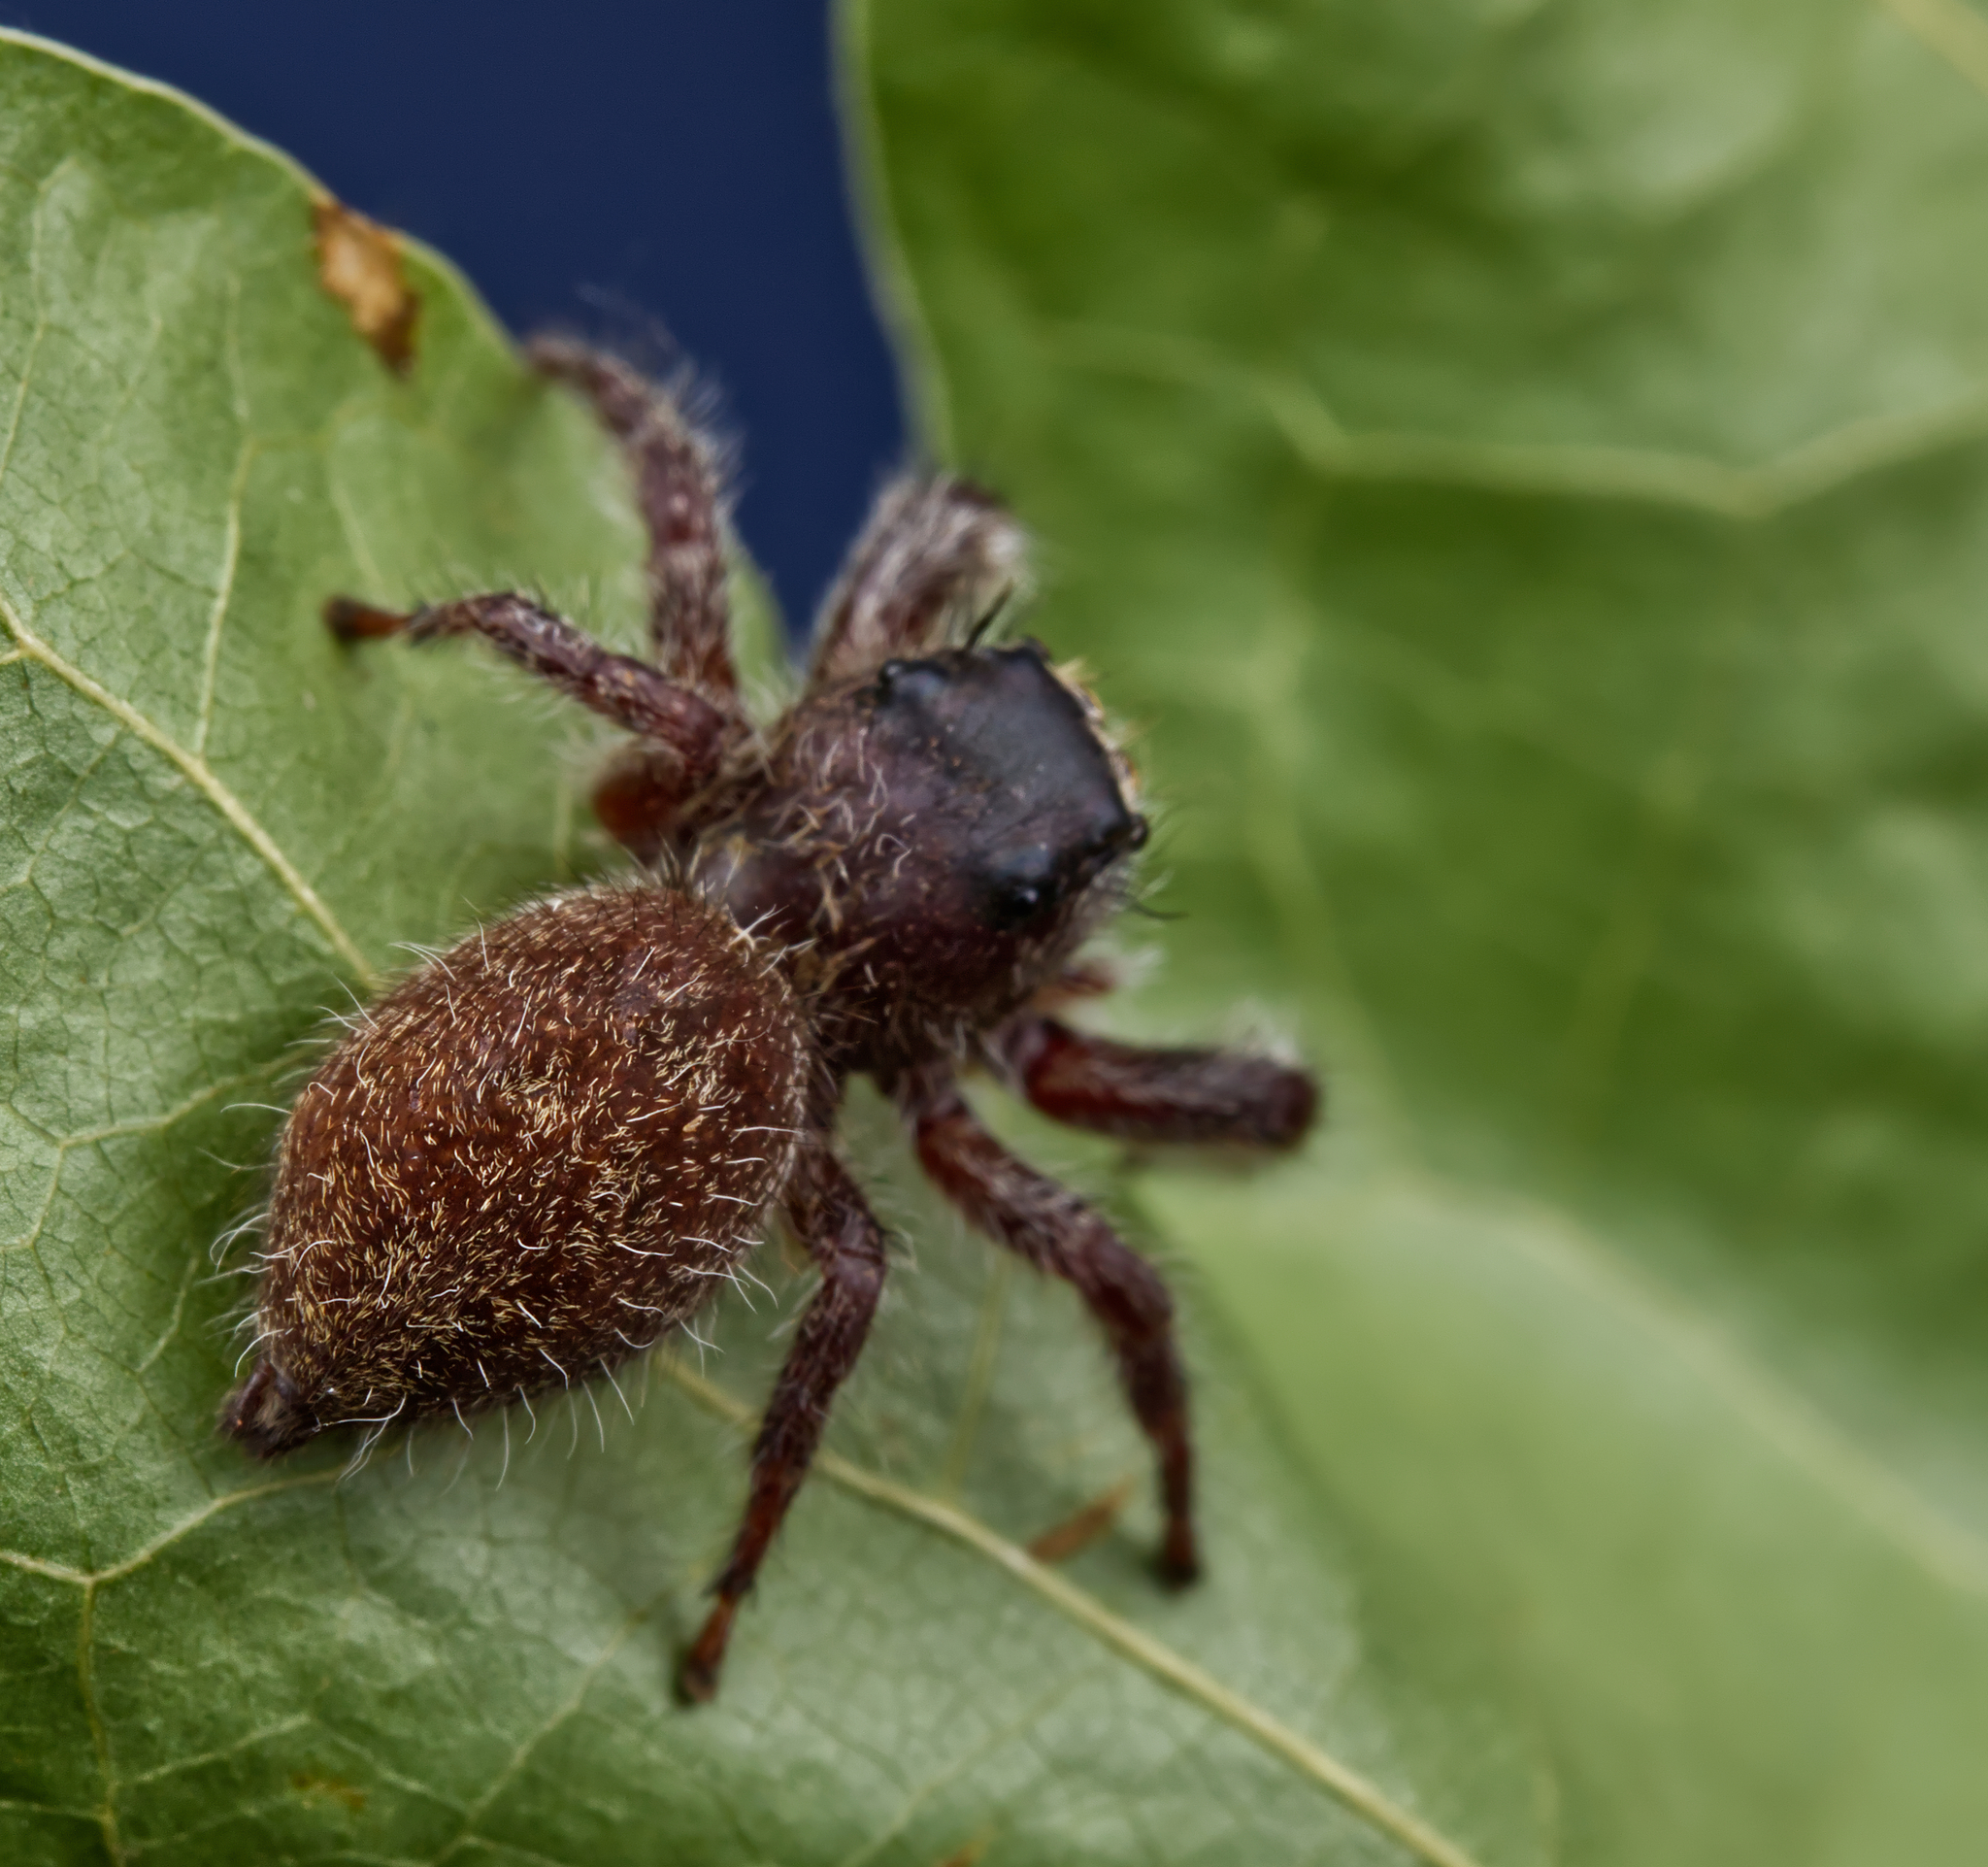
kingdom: Animalia
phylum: Arthropoda
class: Arachnida
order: Araneae
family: Salticidae
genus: Phidippus
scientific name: Phidippus princeps
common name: Grayish jumping spider
